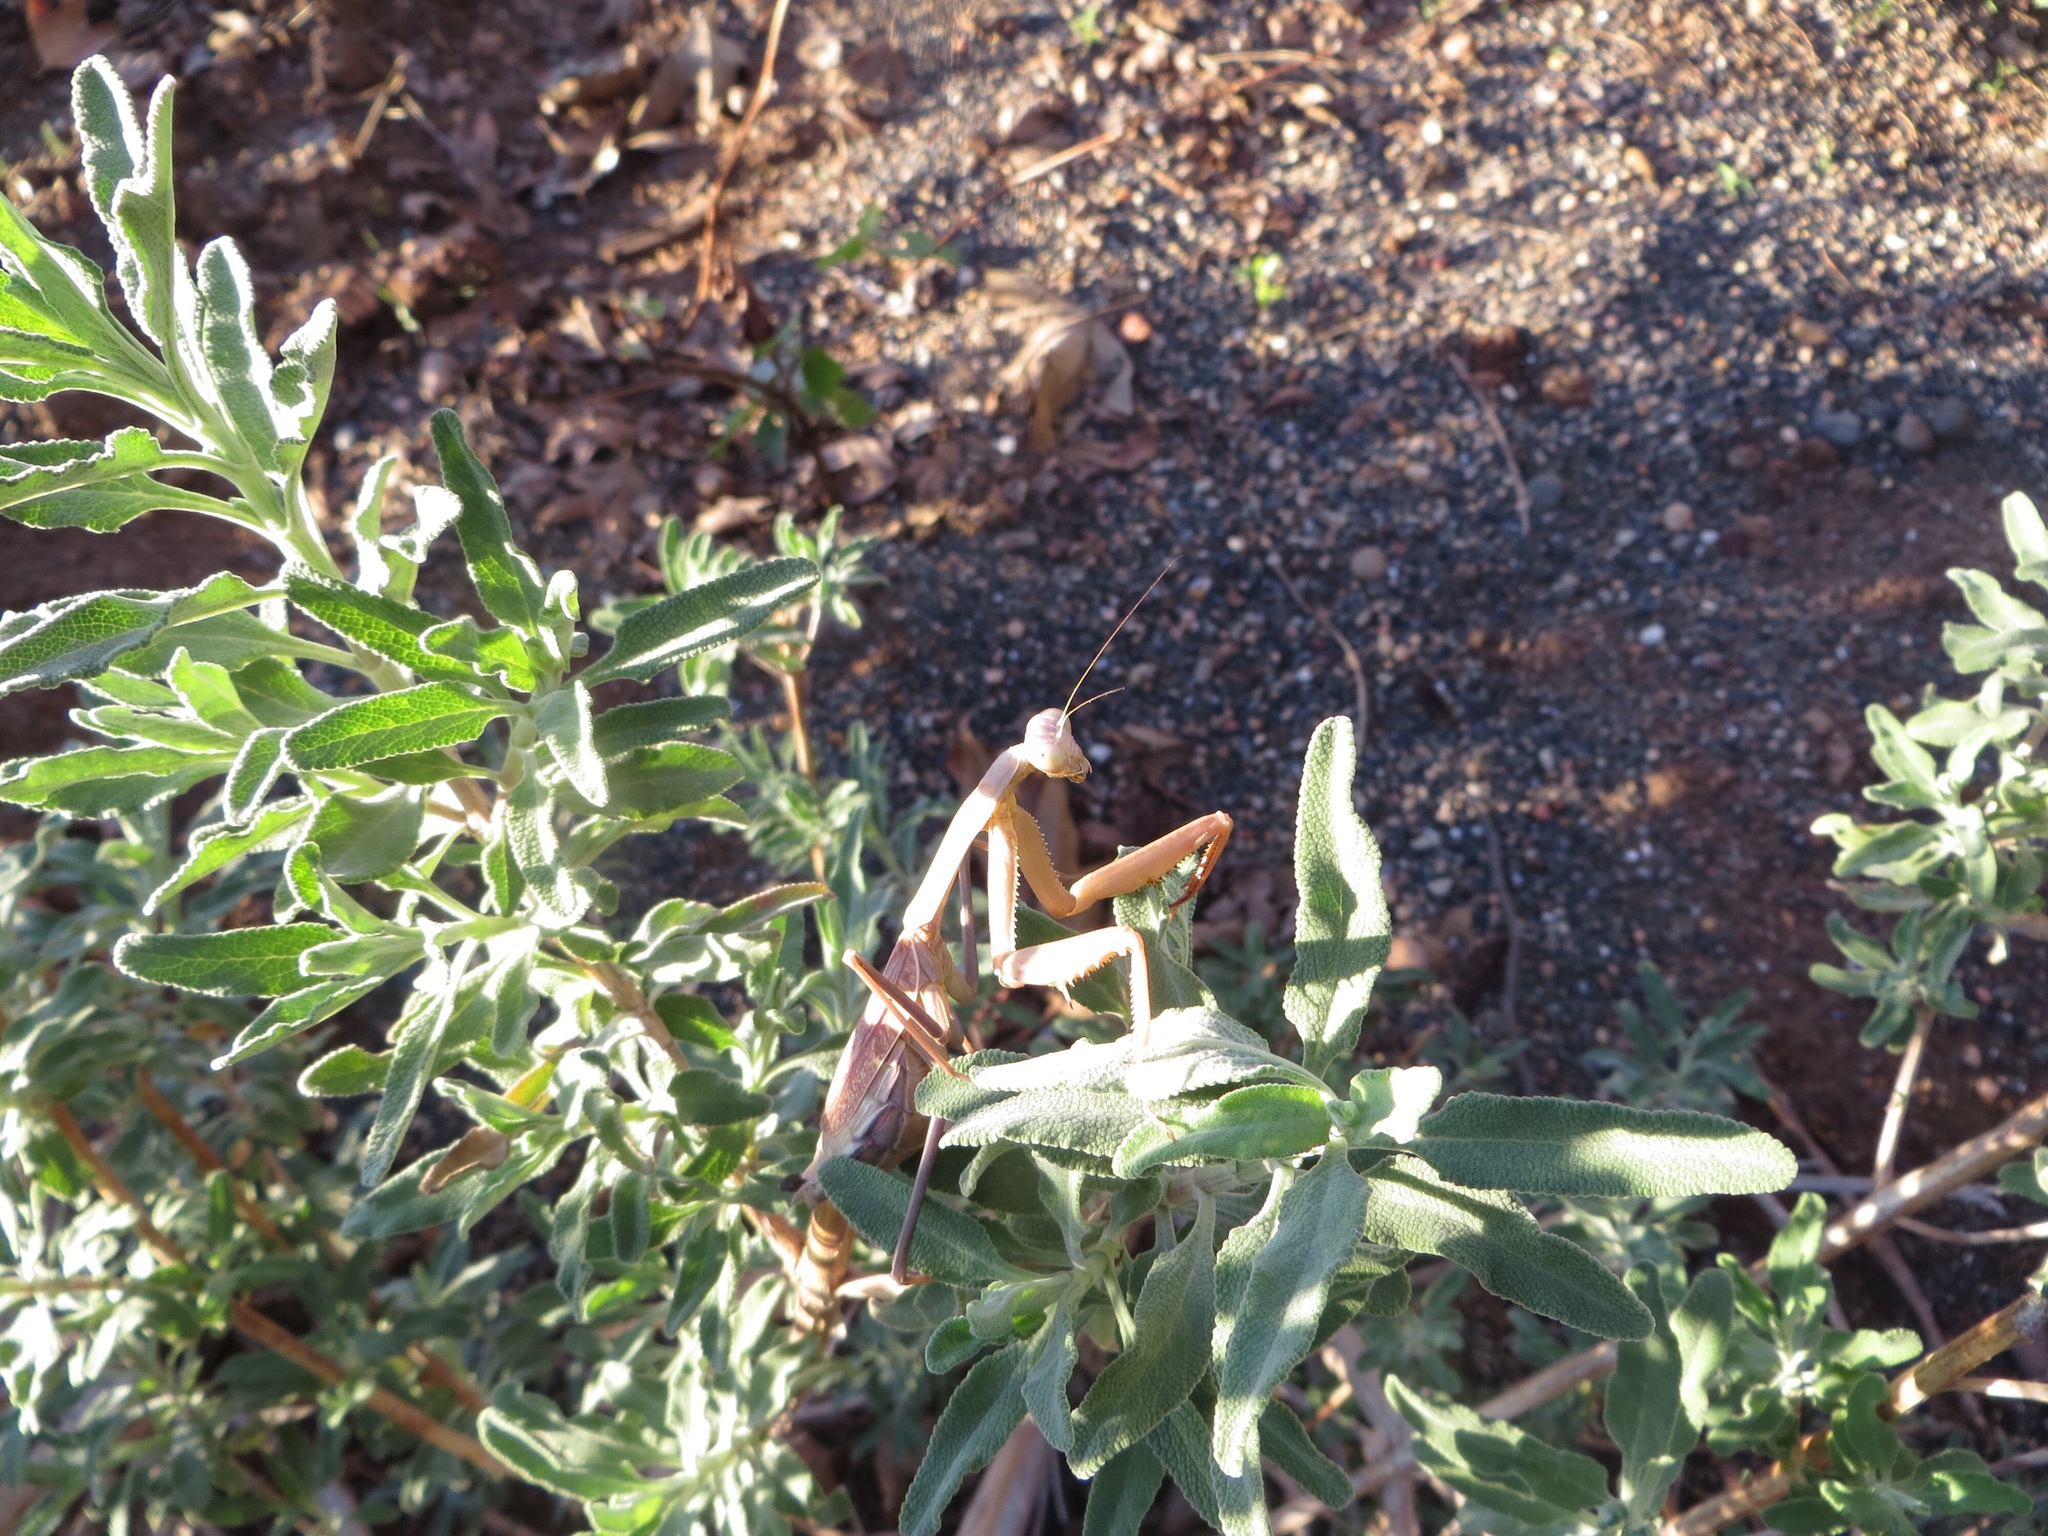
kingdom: Animalia
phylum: Arthropoda
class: Insecta
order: Mantodea
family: Mantidae
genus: Stagmomantis
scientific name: Stagmomantis limbata
